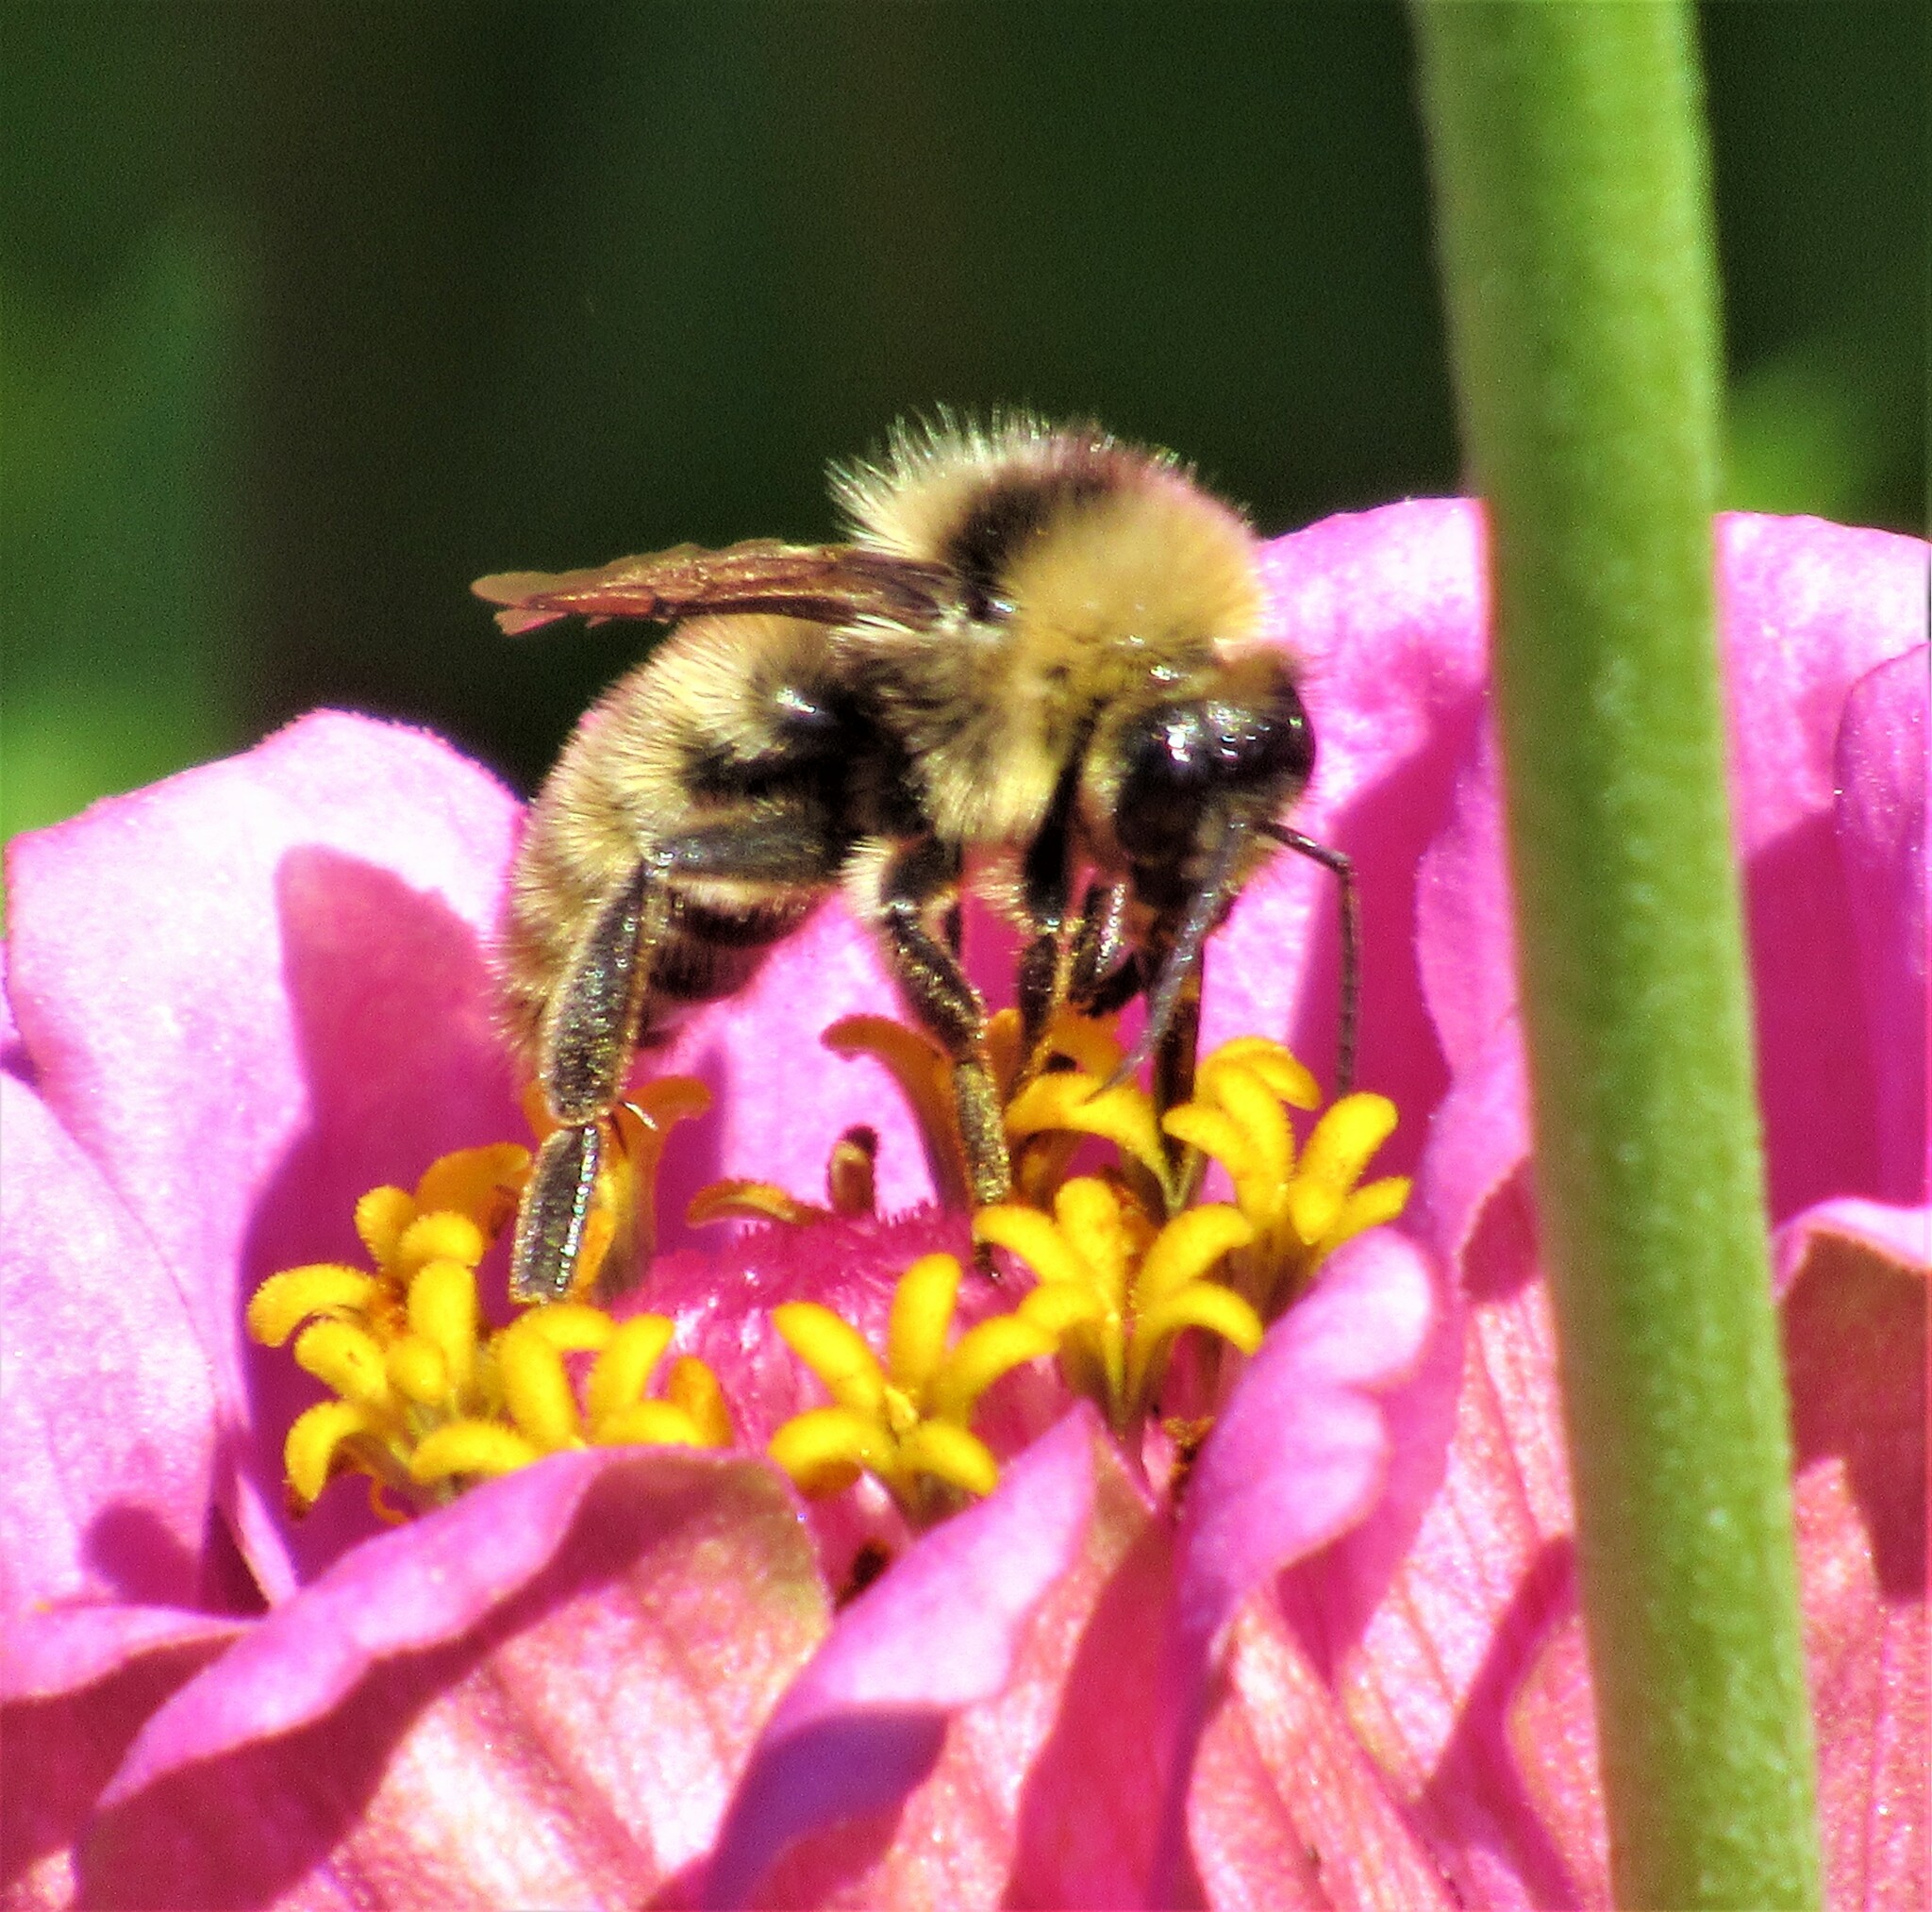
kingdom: Animalia
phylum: Arthropoda
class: Insecta
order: Hymenoptera
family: Apidae
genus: Bombus
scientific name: Bombus californicus
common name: California bumble bee
